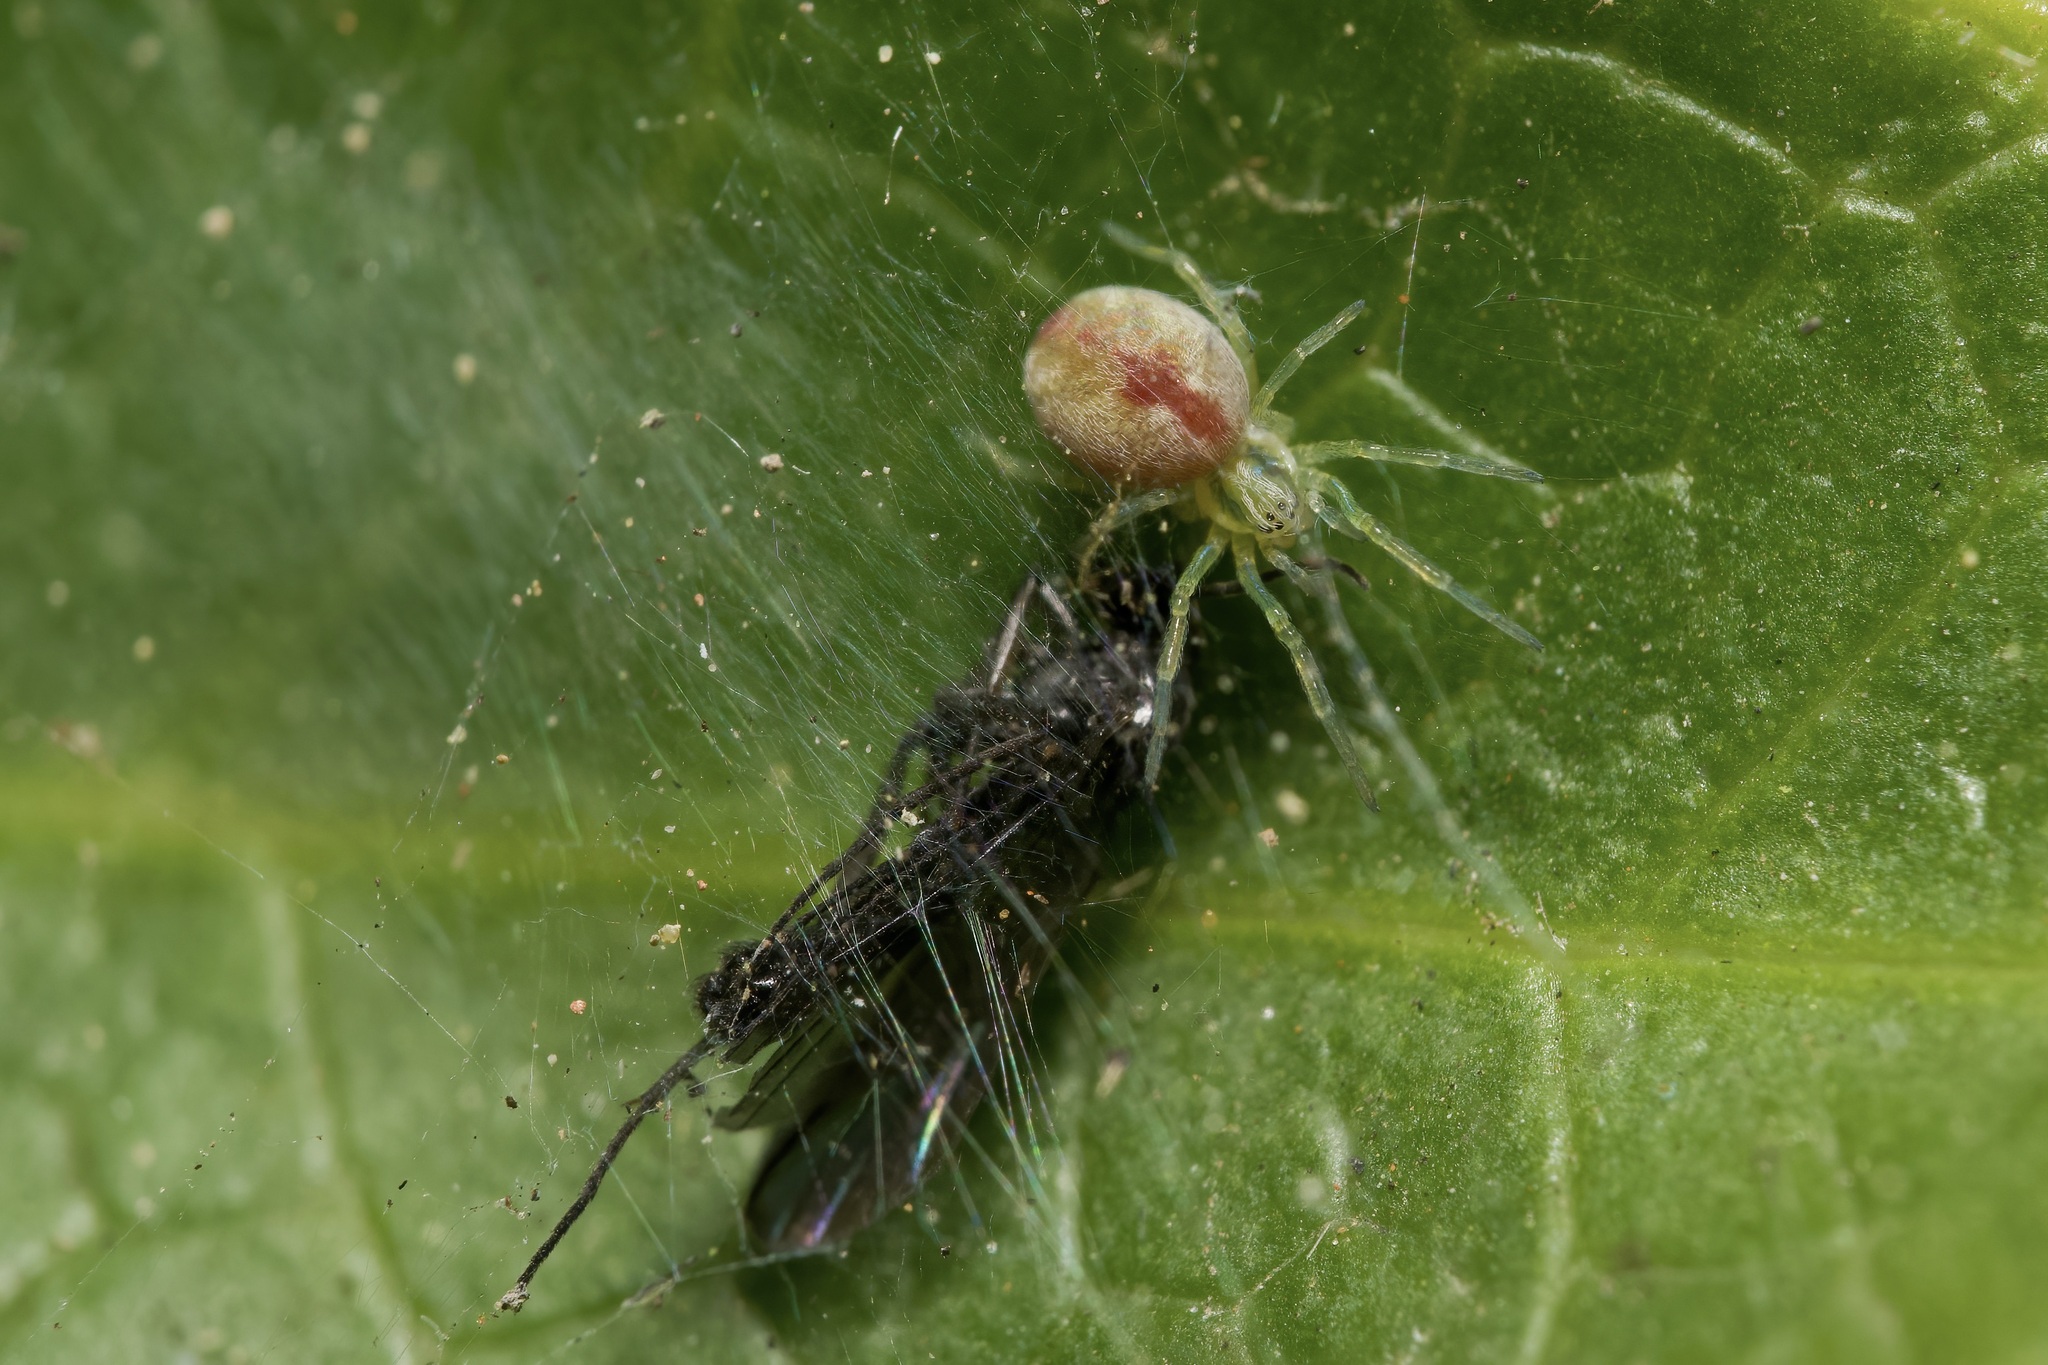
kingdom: Animalia
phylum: Arthropoda
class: Arachnida
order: Araneae
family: Dictynidae
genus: Nigma
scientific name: Nigma puella
